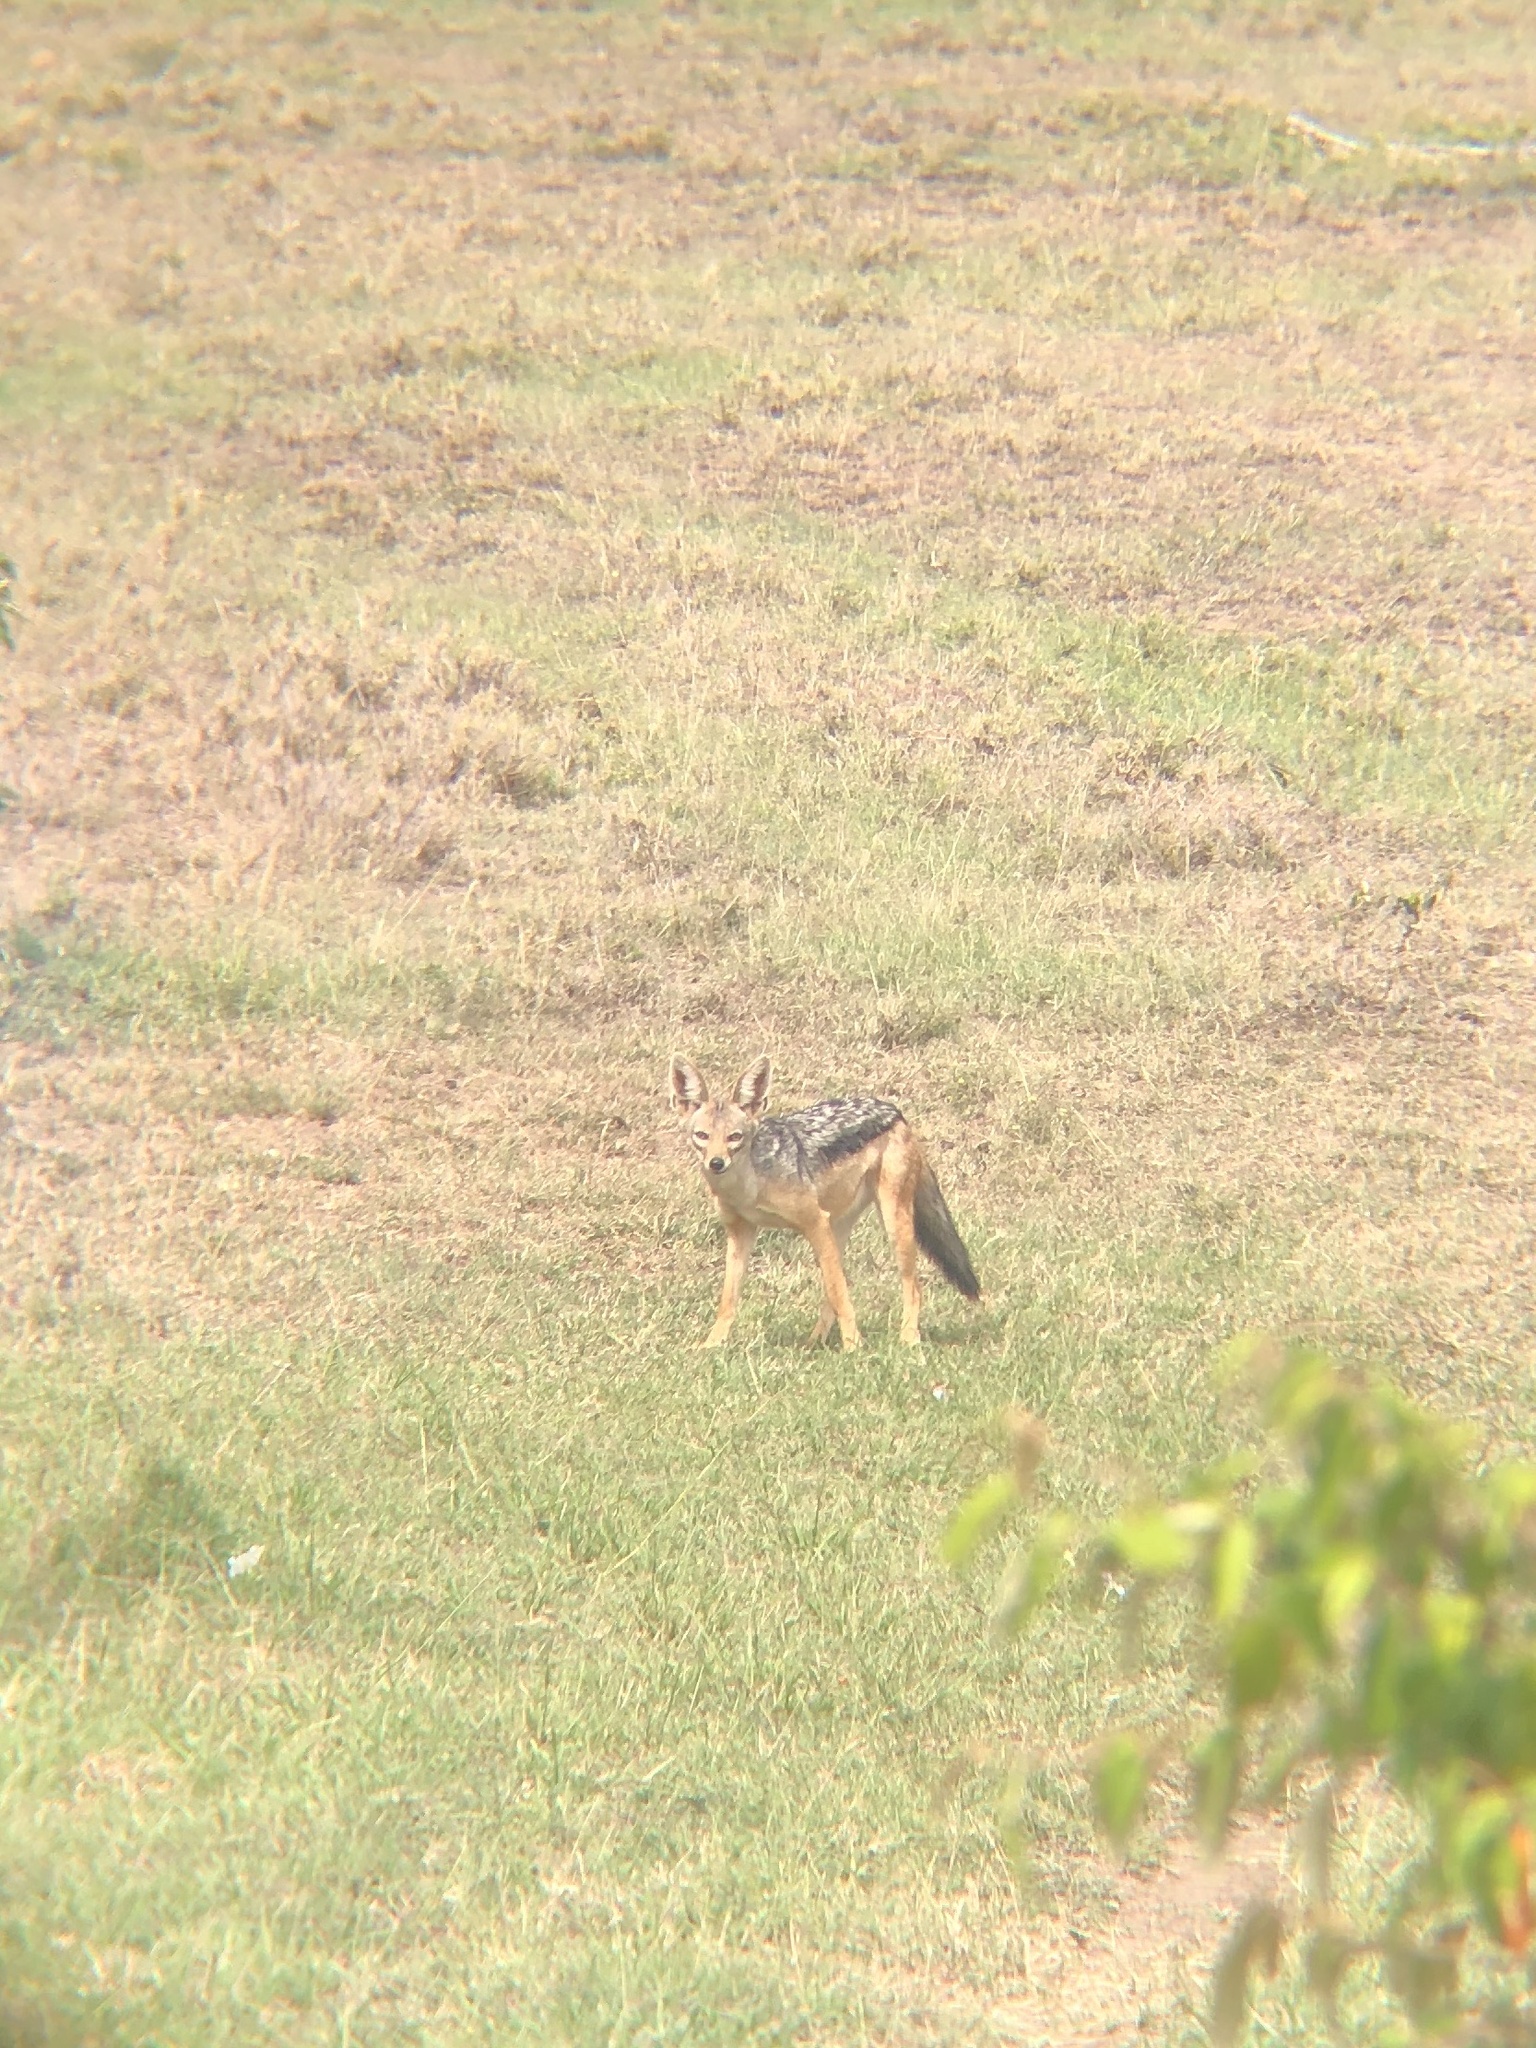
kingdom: Animalia
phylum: Chordata
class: Mammalia
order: Carnivora
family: Canidae
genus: Lupulella
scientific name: Lupulella
